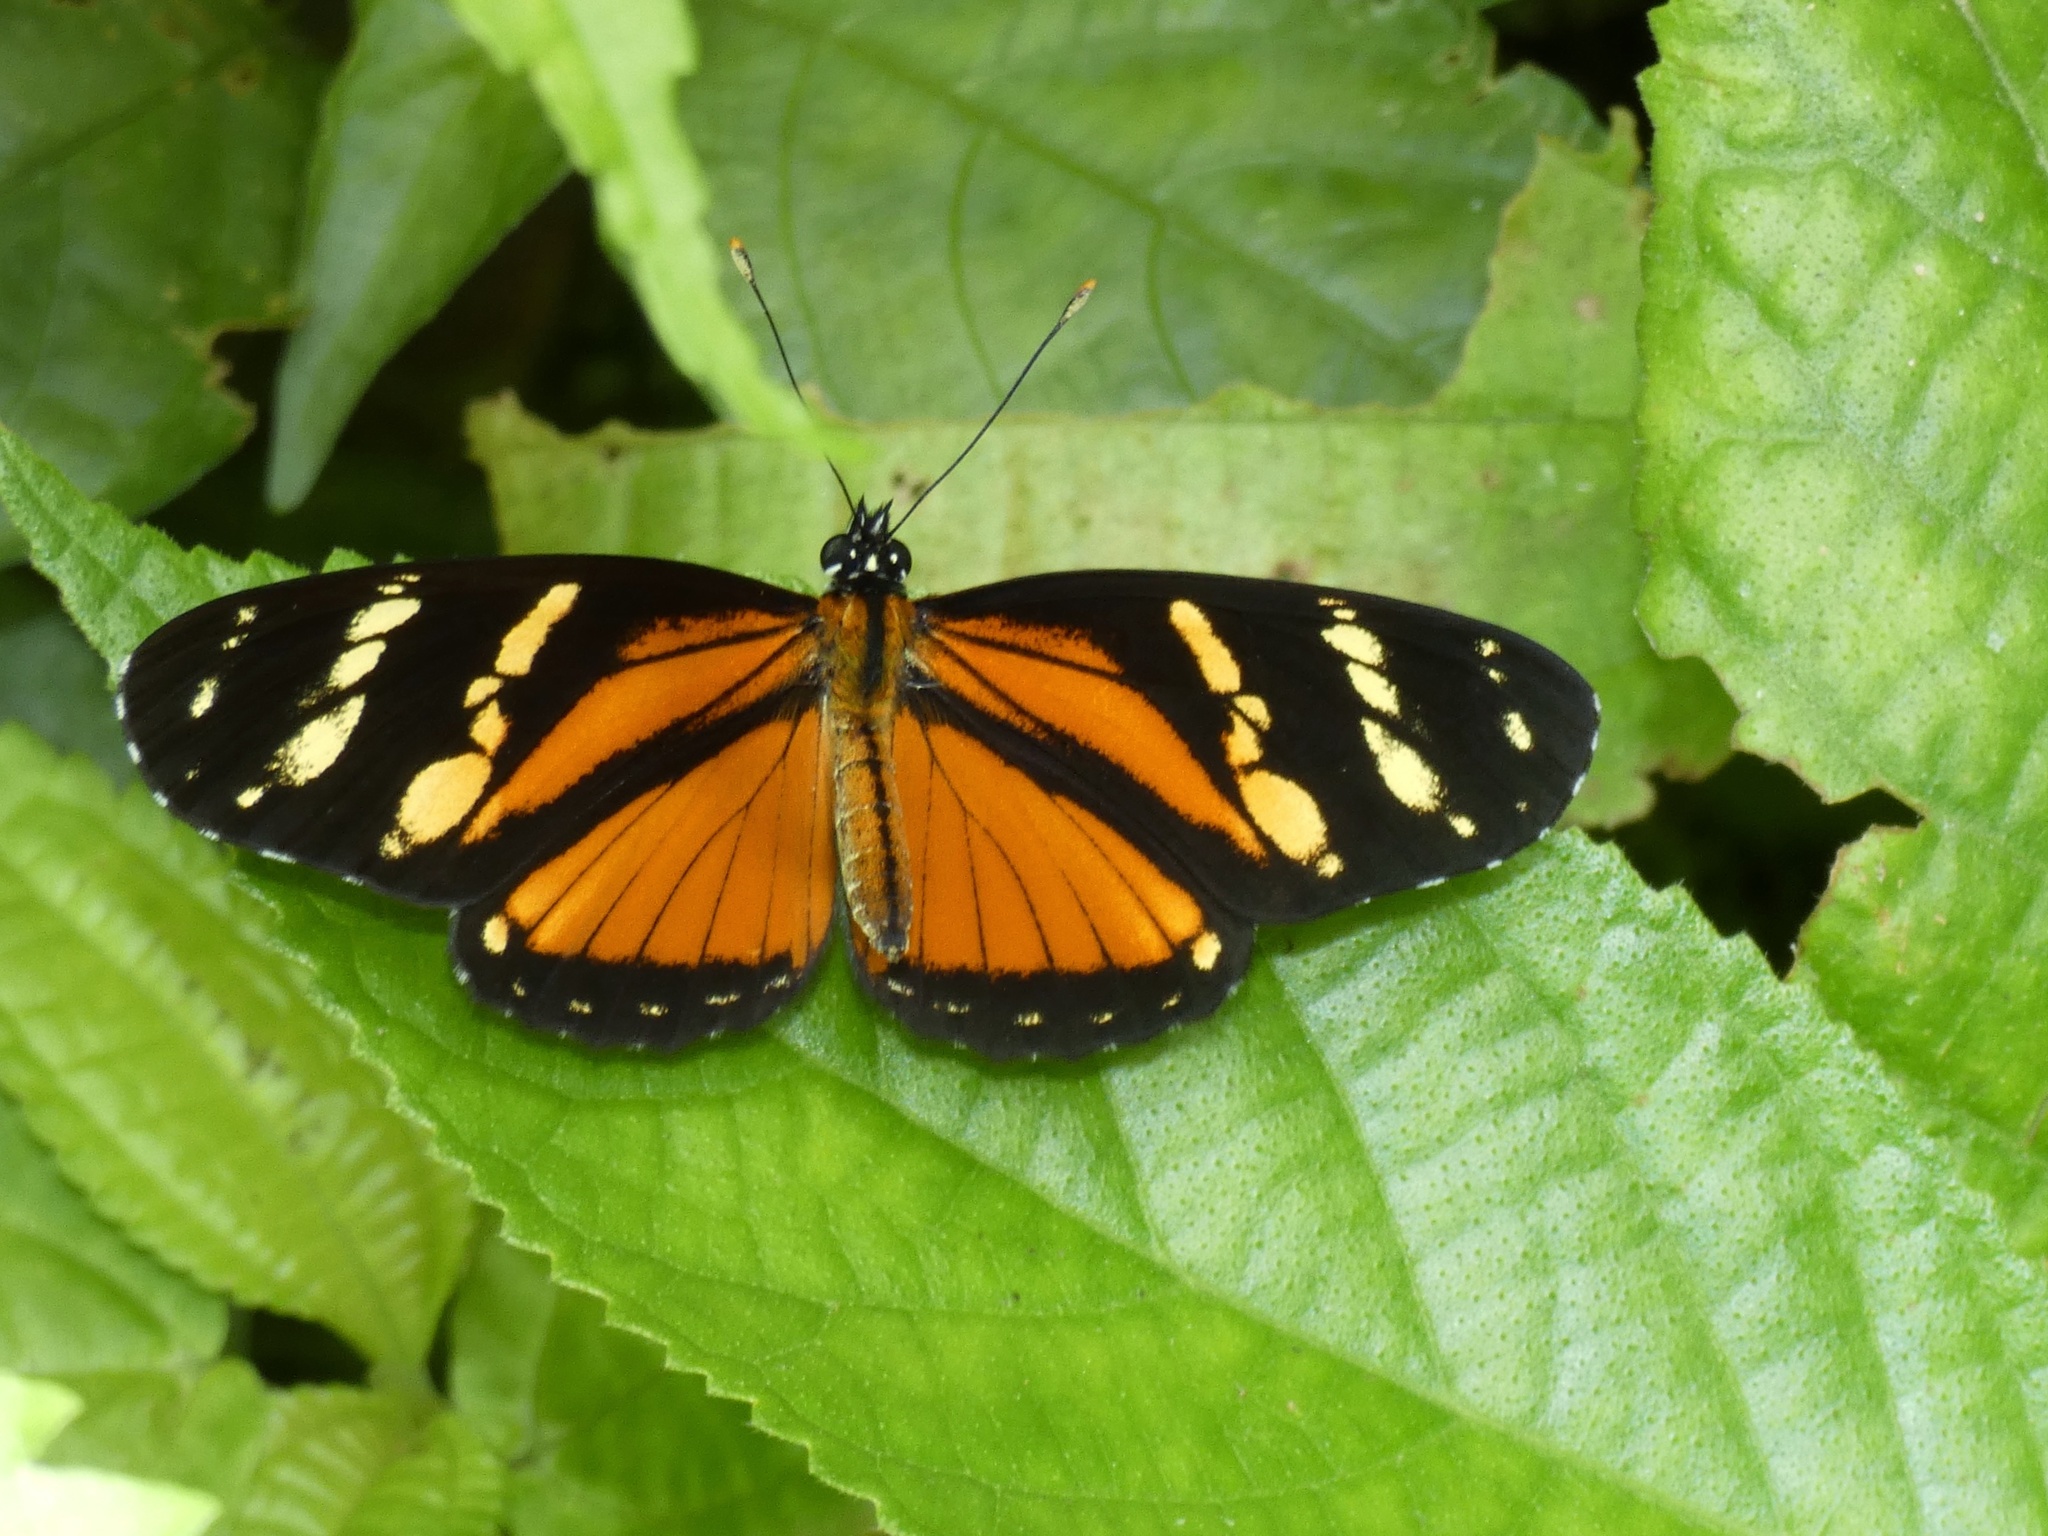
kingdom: Animalia
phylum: Arthropoda
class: Insecta
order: Lepidoptera
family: Nymphalidae
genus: Eresia
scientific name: Eresia ithomioides
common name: Variable crescent
